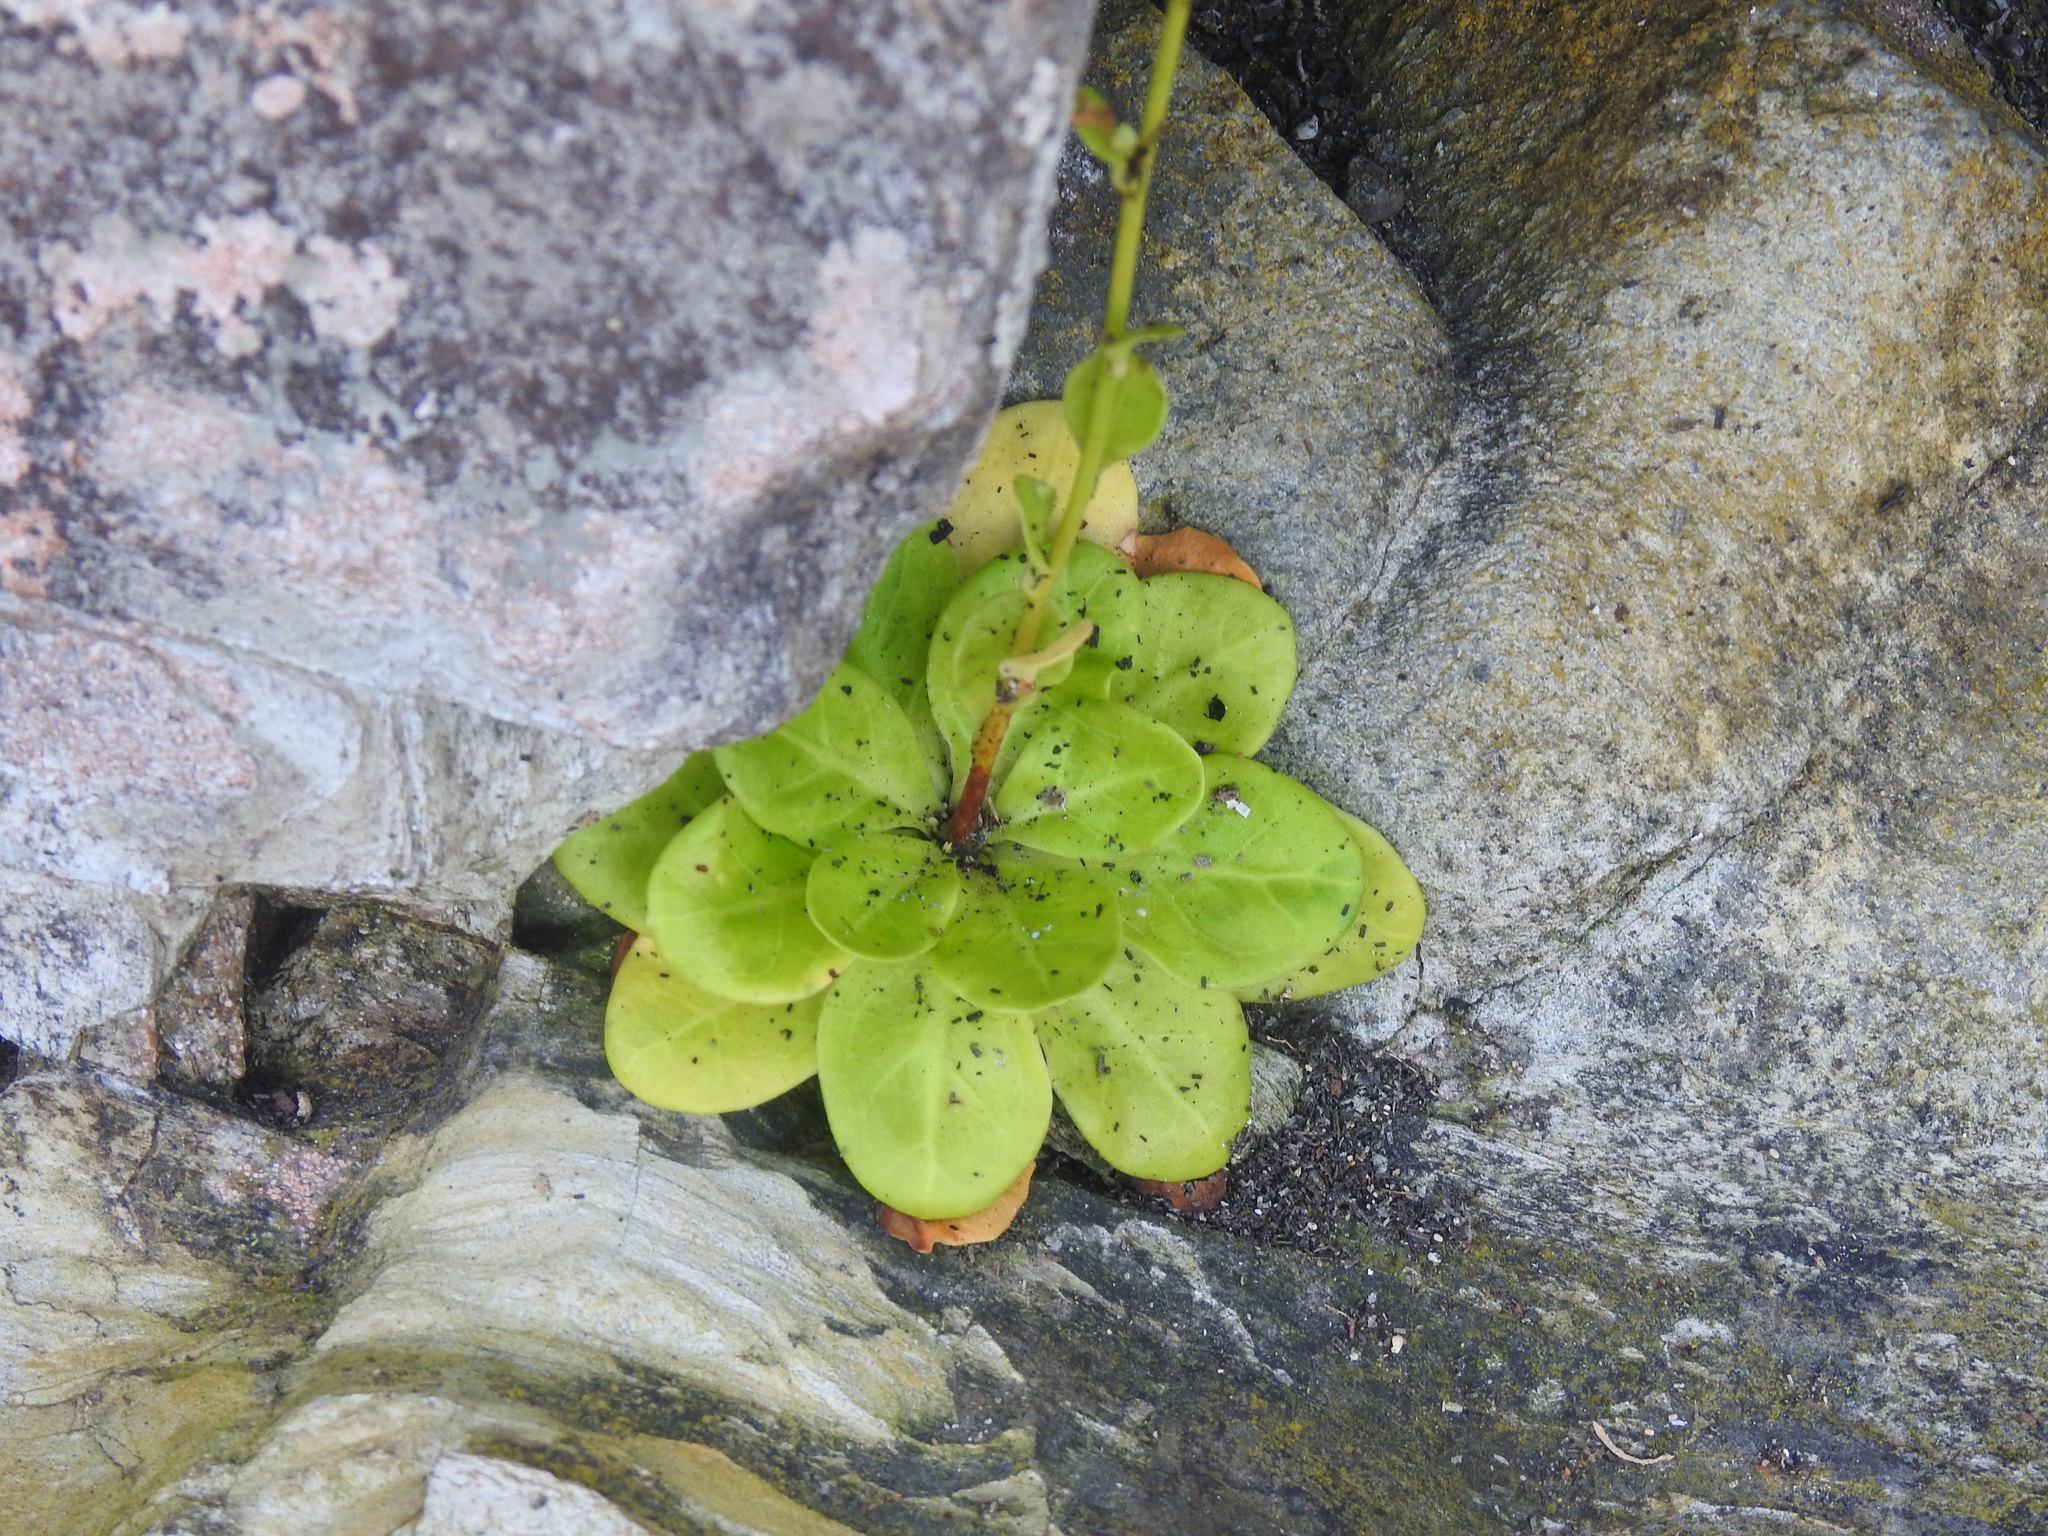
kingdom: Plantae
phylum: Tracheophyta
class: Magnoliopsida
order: Ericales
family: Primulaceae
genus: Samolus
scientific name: Samolus valerandi
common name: Brookweed
